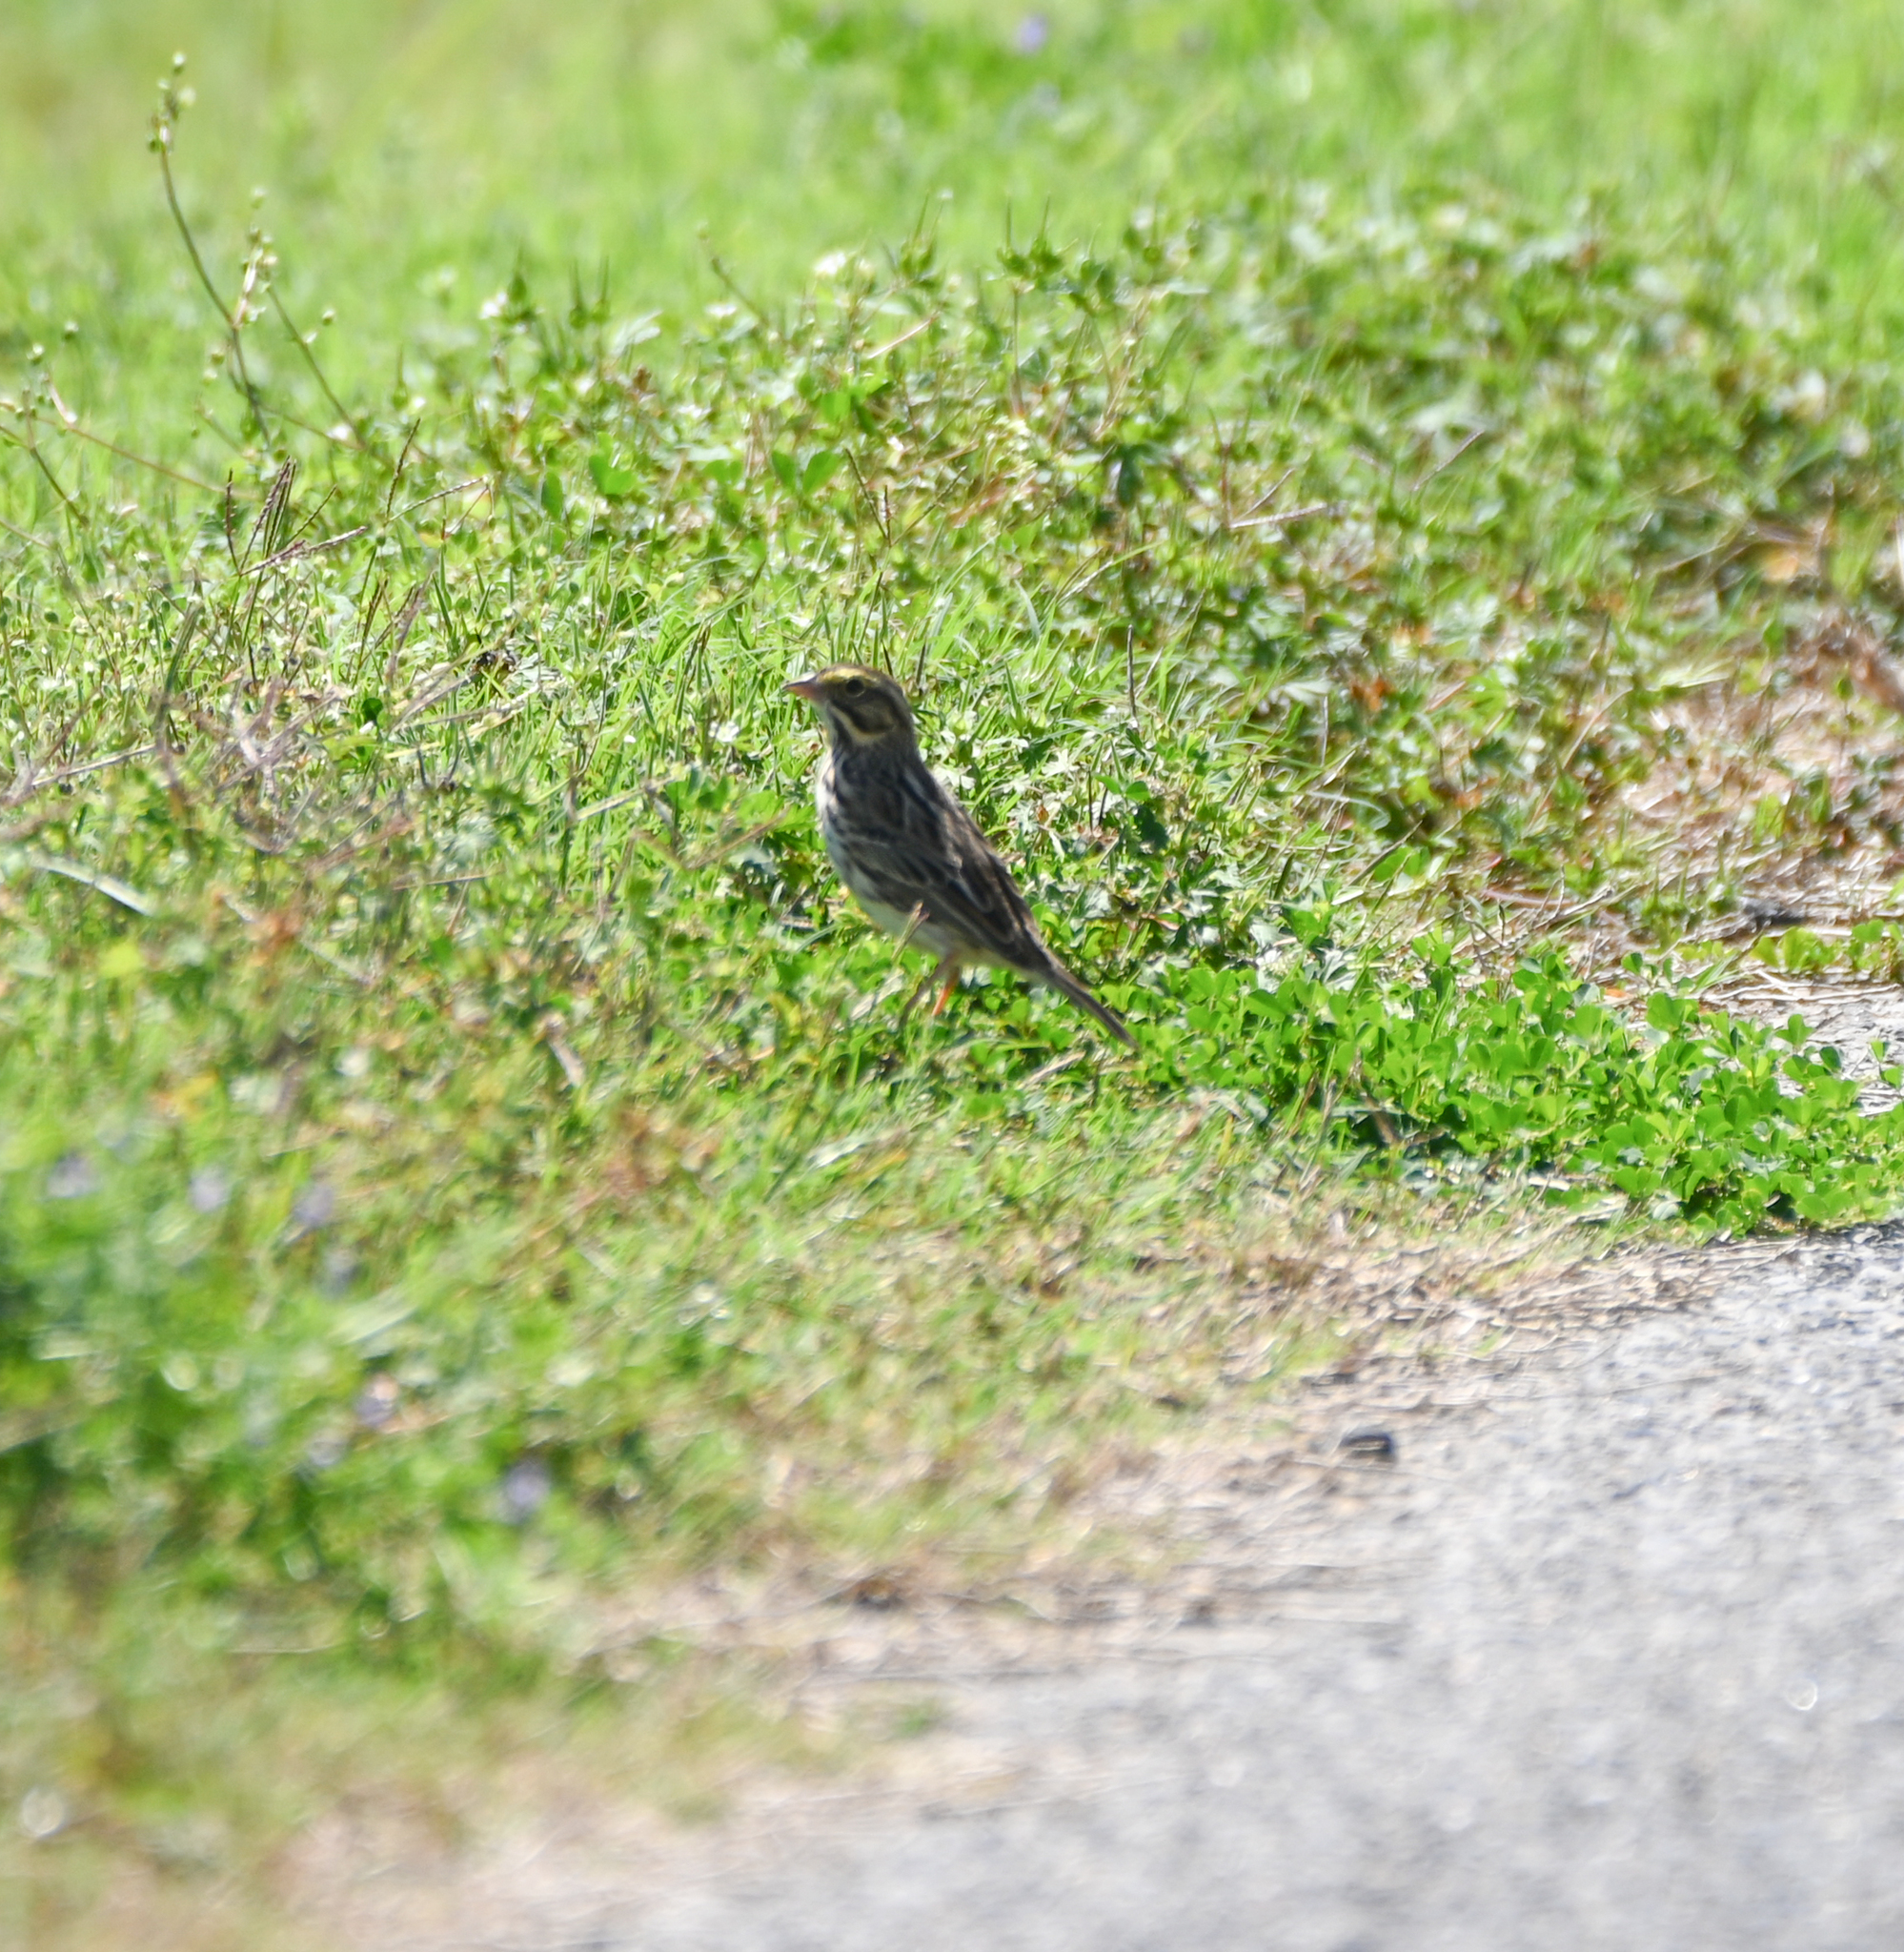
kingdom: Animalia
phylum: Chordata
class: Aves
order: Passeriformes
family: Passerellidae
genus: Passerculus
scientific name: Passerculus sandwichensis
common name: Savannah sparrow
